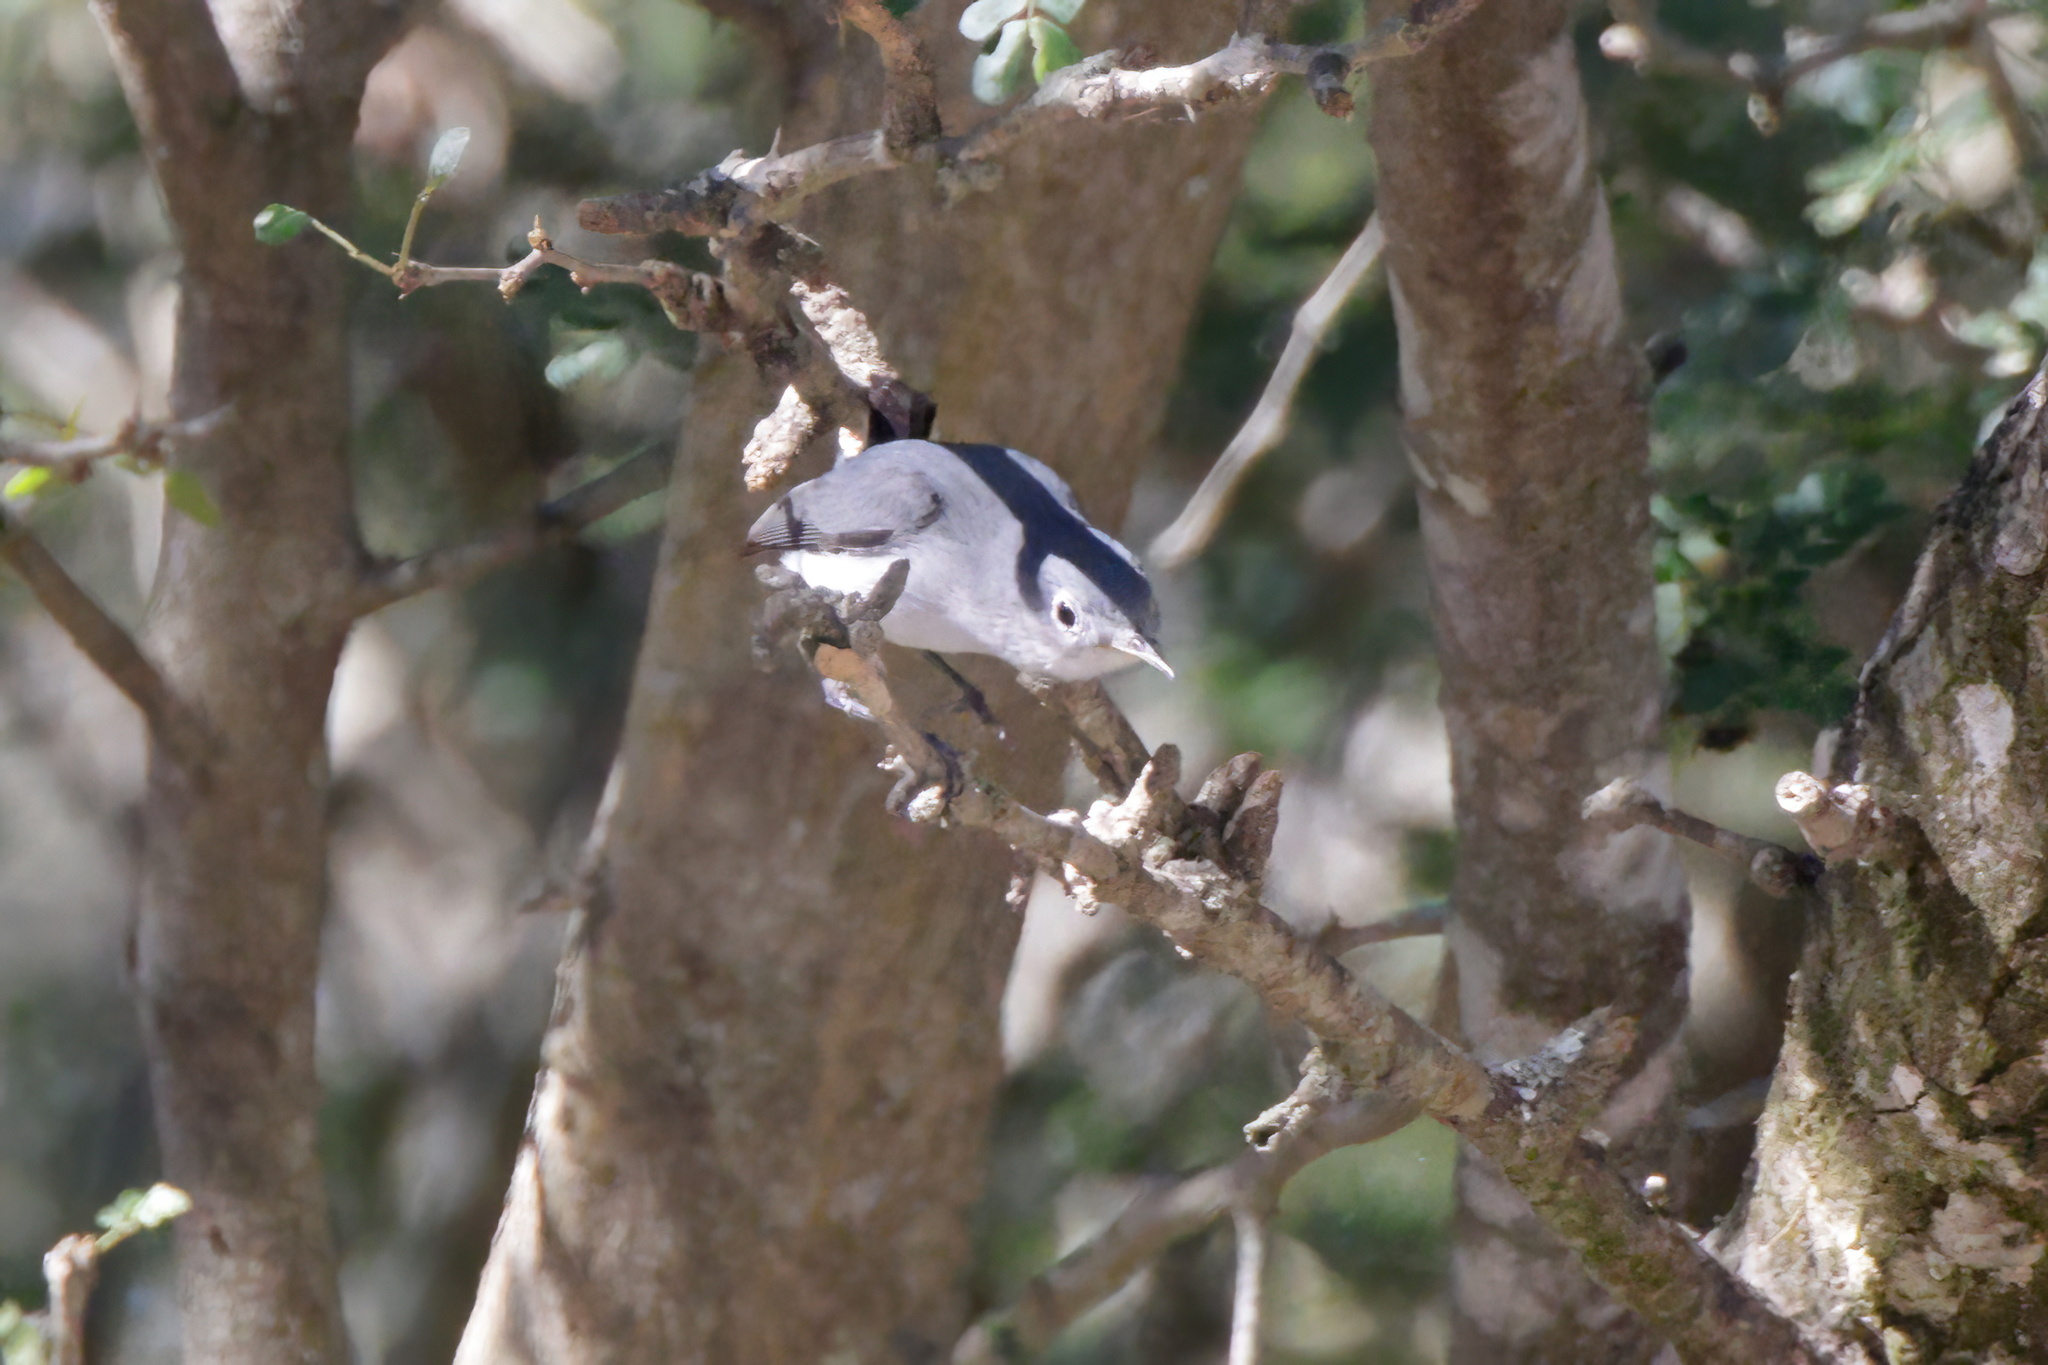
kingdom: Animalia
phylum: Chordata
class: Aves
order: Passeriformes
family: Polioptilidae
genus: Polioptila
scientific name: Polioptila caerulea
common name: Blue-gray gnatcatcher
